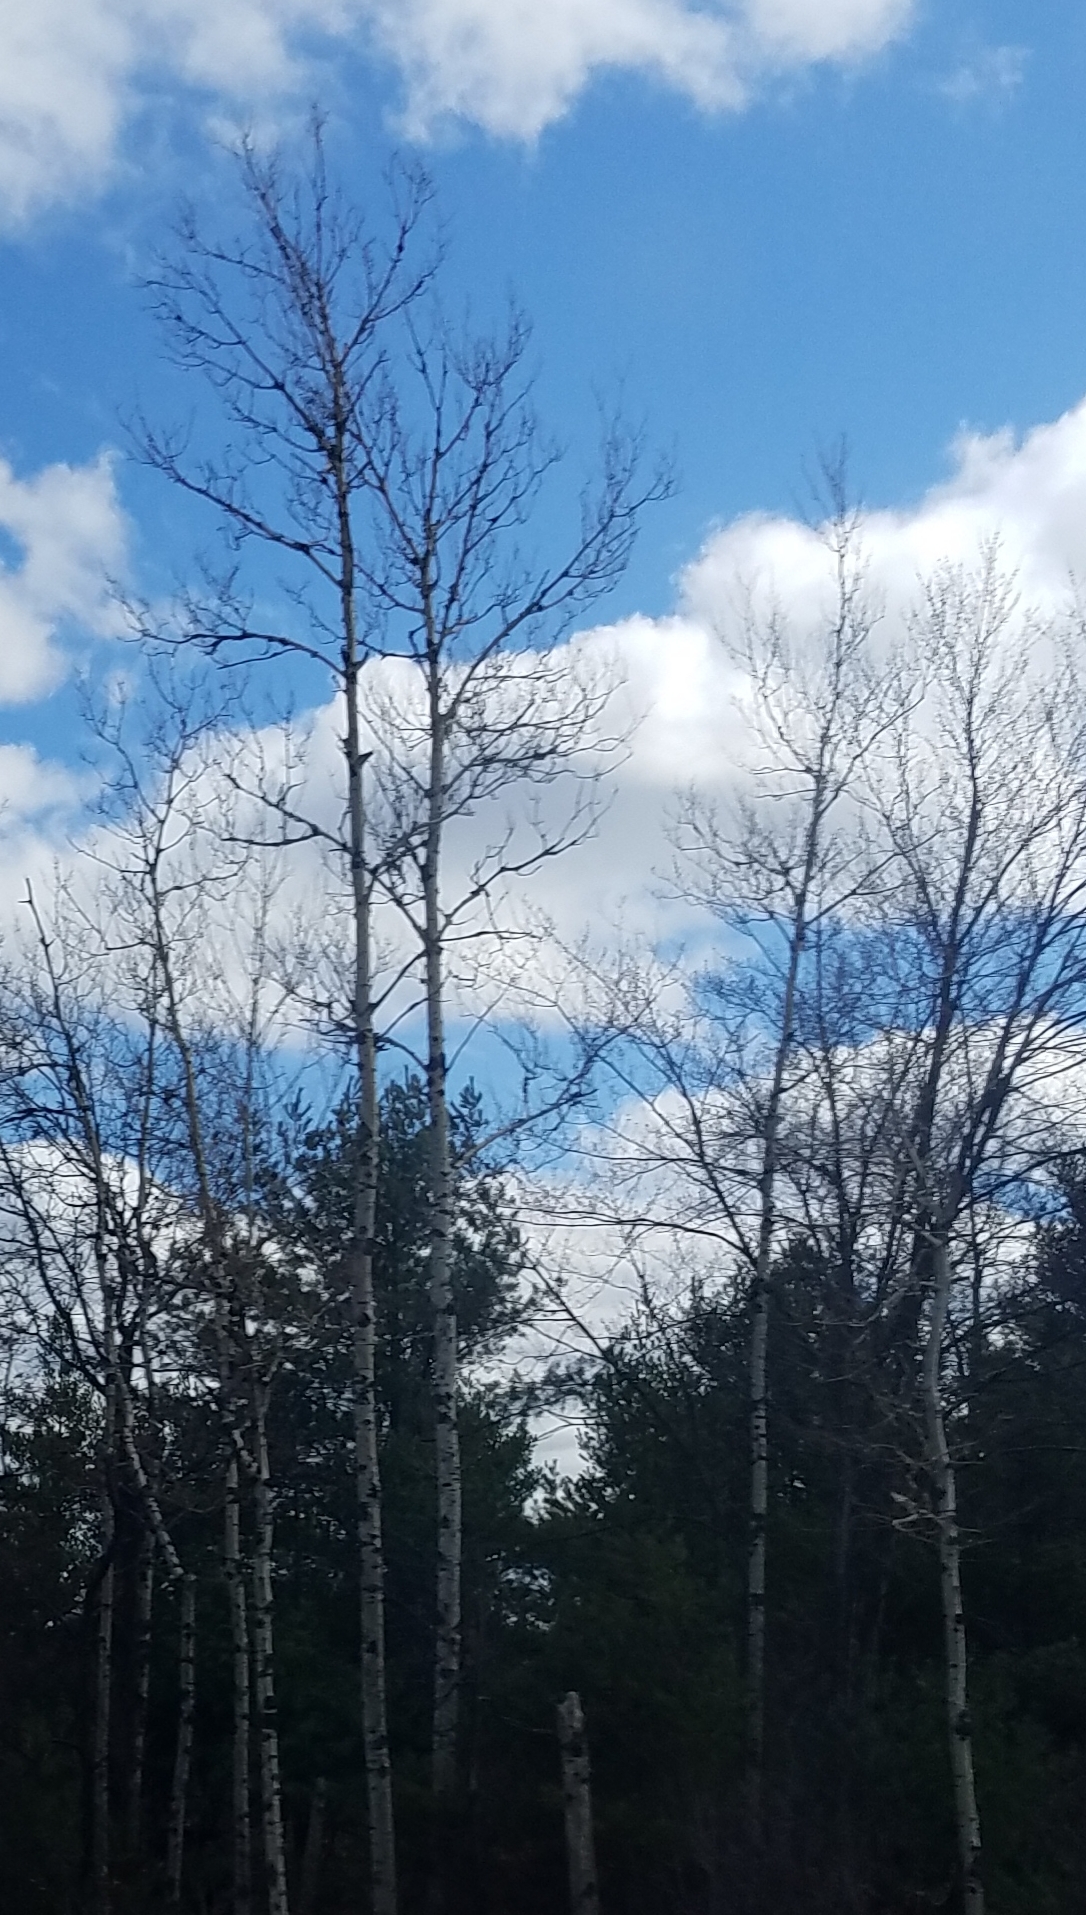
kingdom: Plantae
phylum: Tracheophyta
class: Magnoliopsida
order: Malpighiales
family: Salicaceae
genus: Populus
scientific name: Populus tremuloides
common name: Quaking aspen
